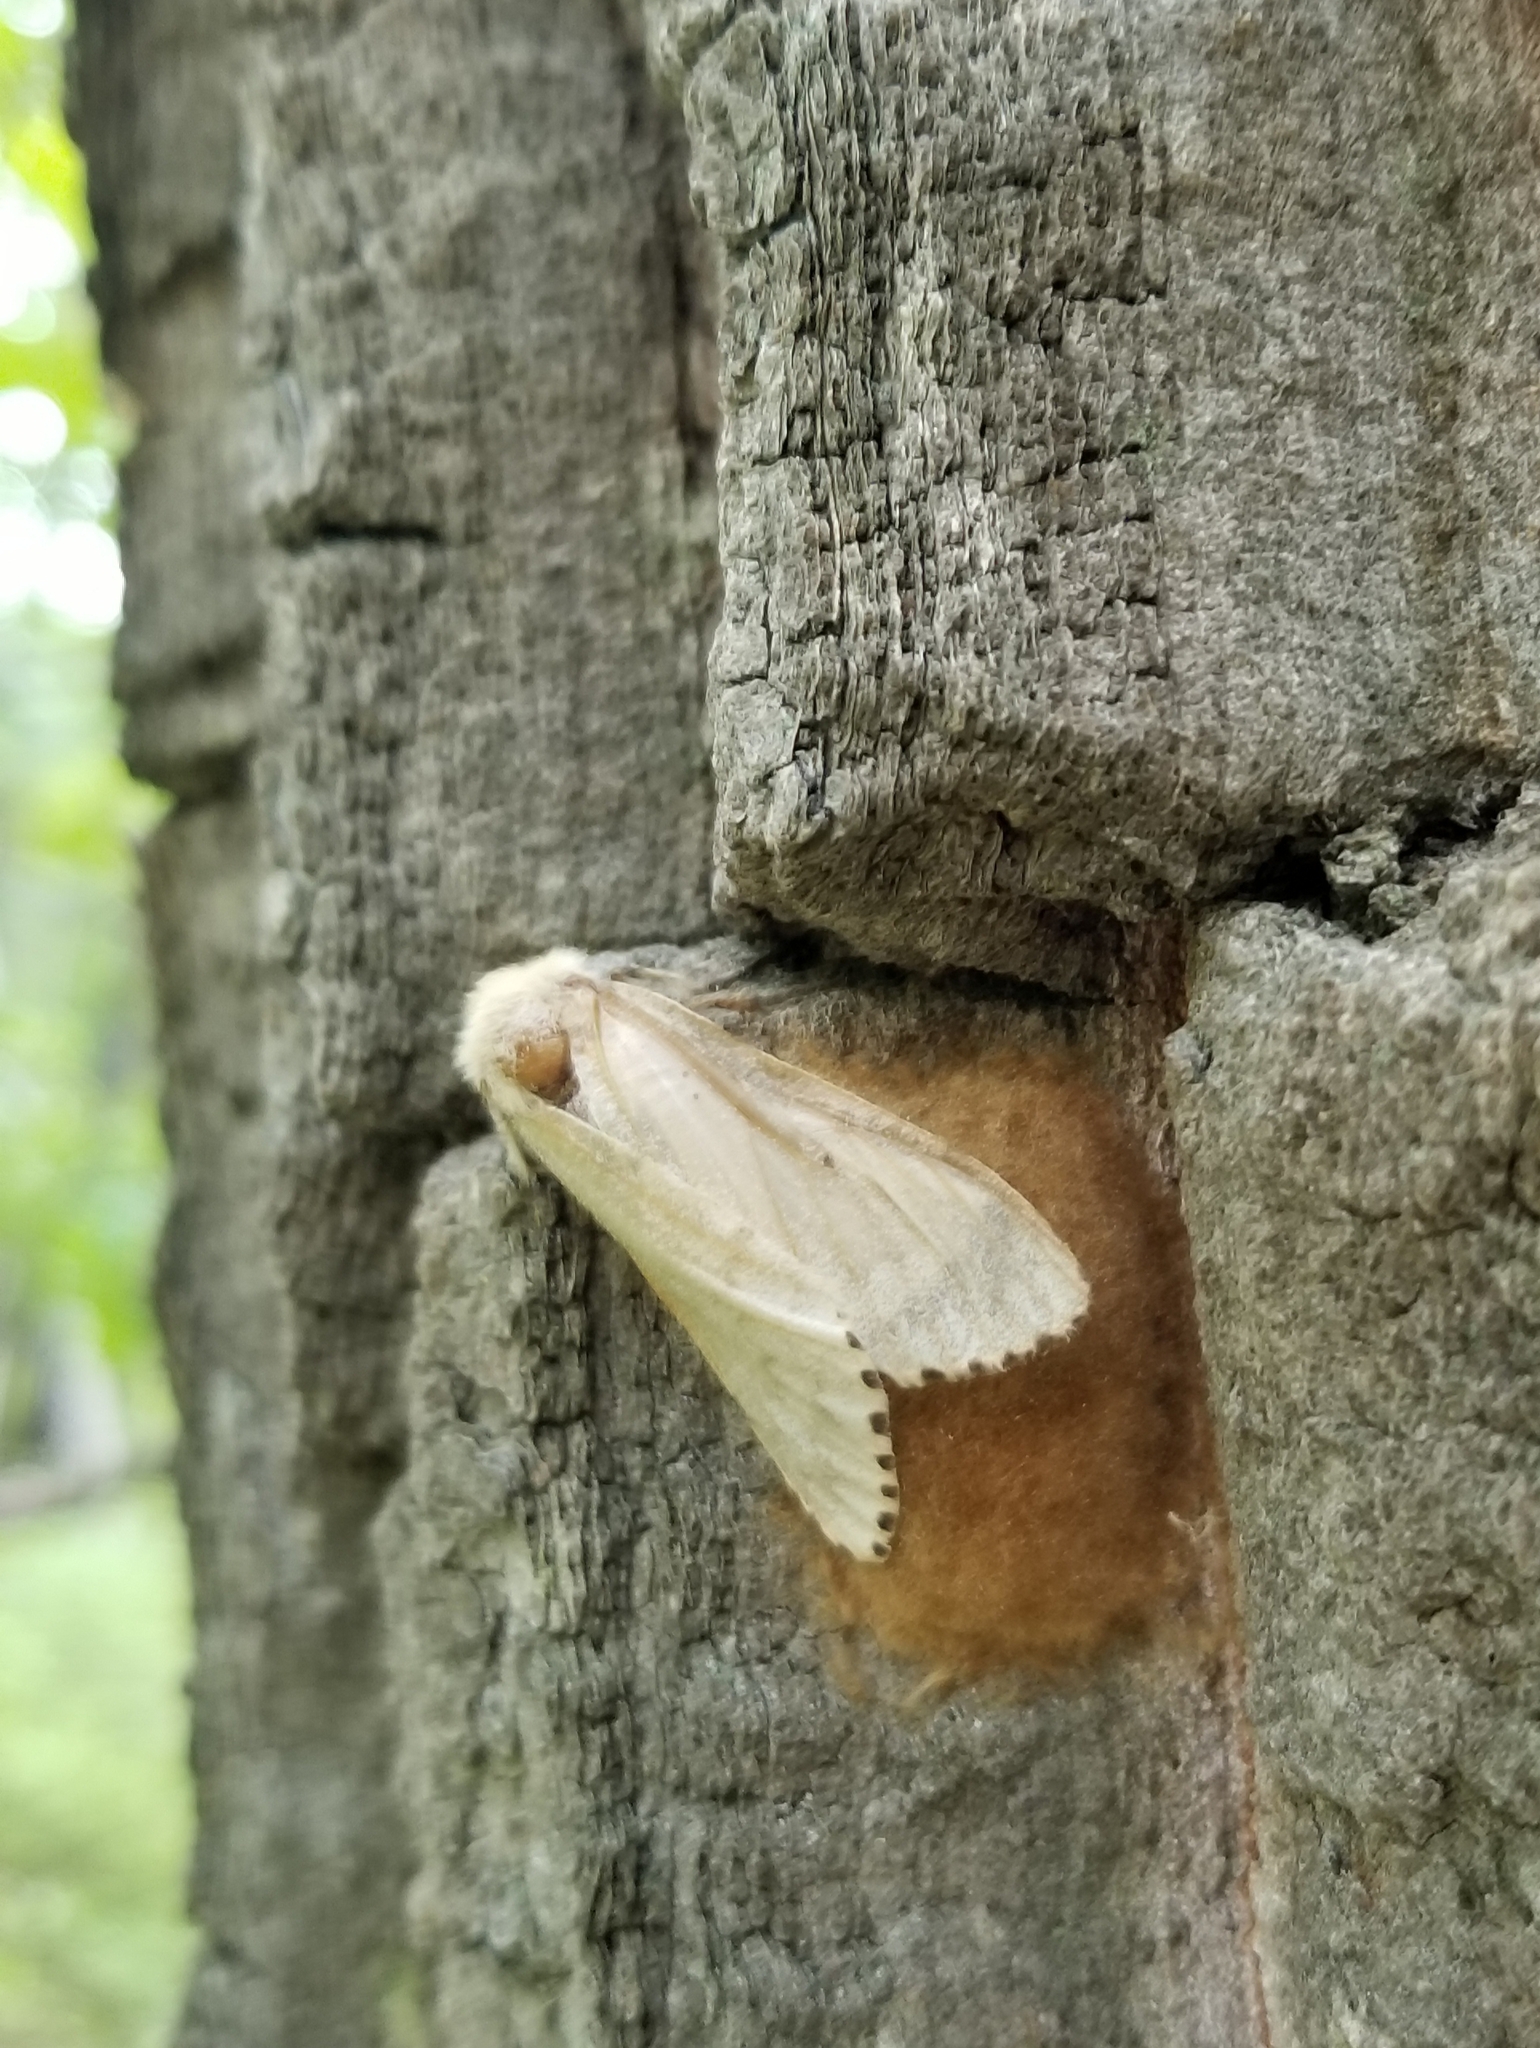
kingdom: Animalia
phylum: Arthropoda
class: Insecta
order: Lepidoptera
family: Erebidae
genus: Lymantria
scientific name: Lymantria dispar
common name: Gypsy moth
